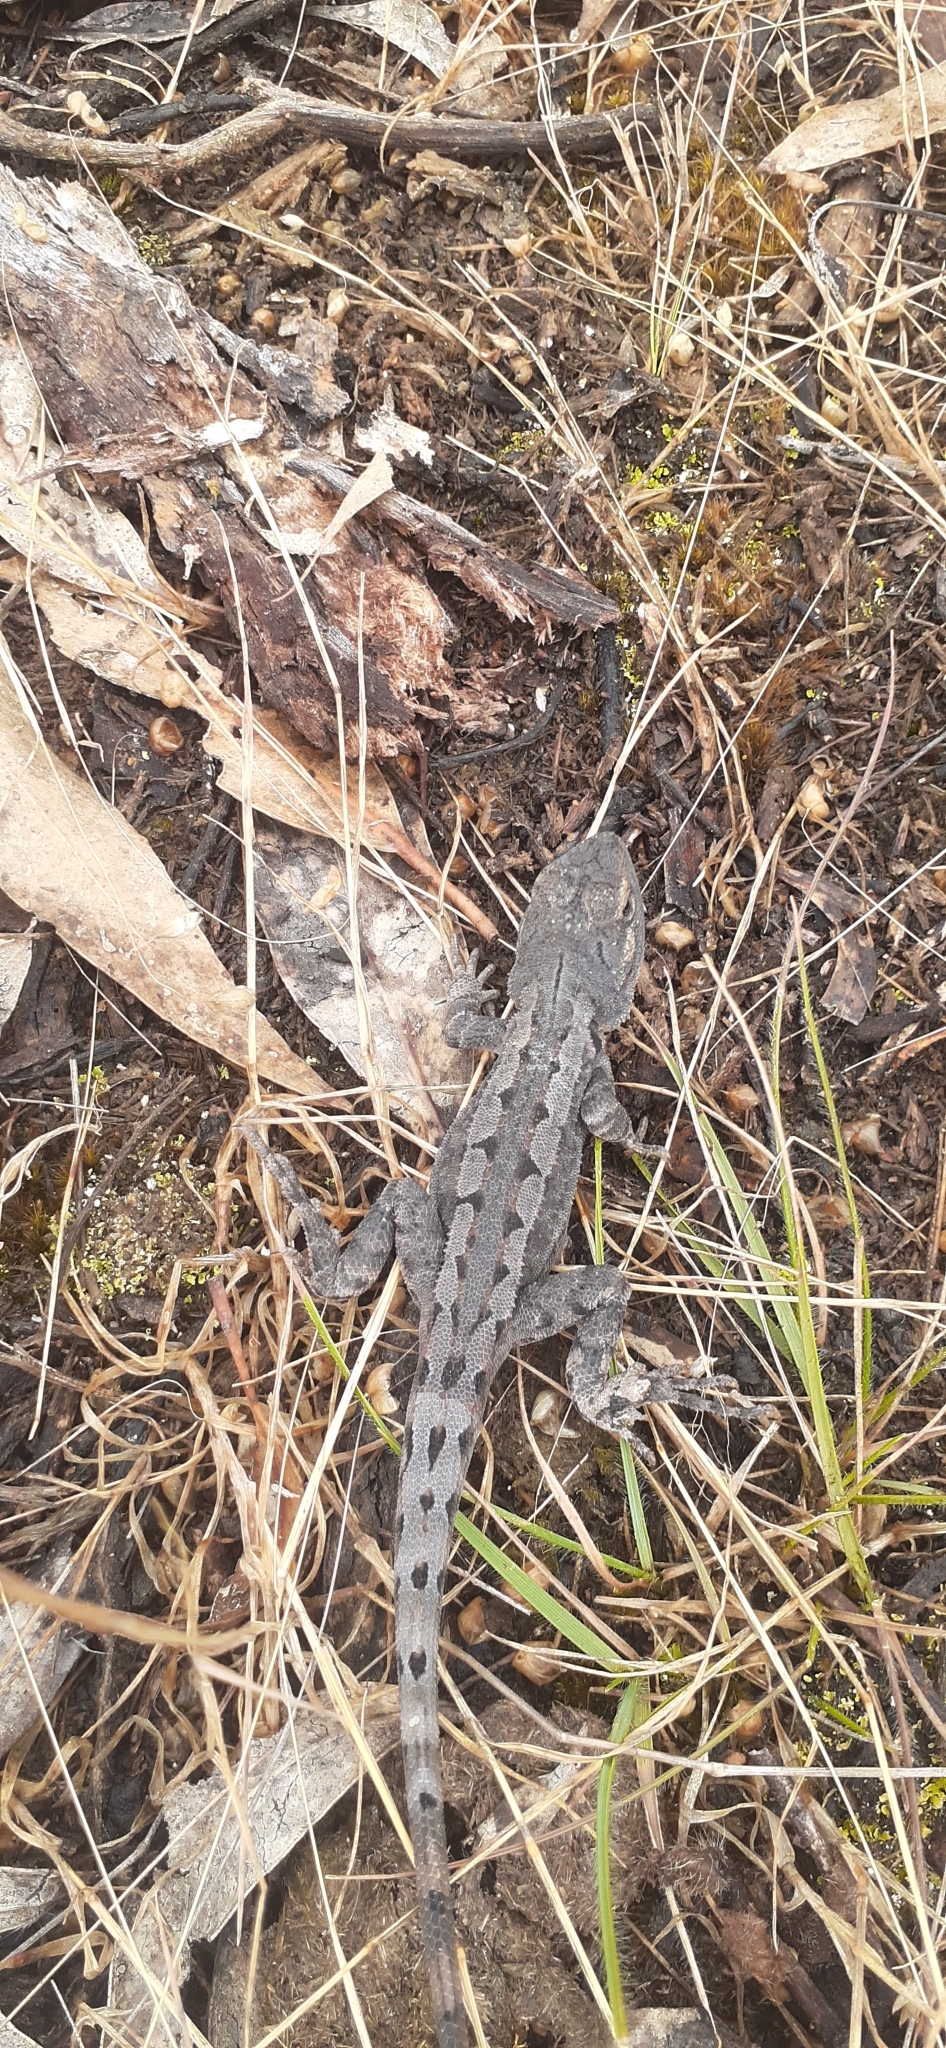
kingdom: Animalia
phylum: Chordata
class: Squamata
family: Agamidae
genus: Amphibolurus
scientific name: Amphibolurus muricatus
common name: Jacky lizard
